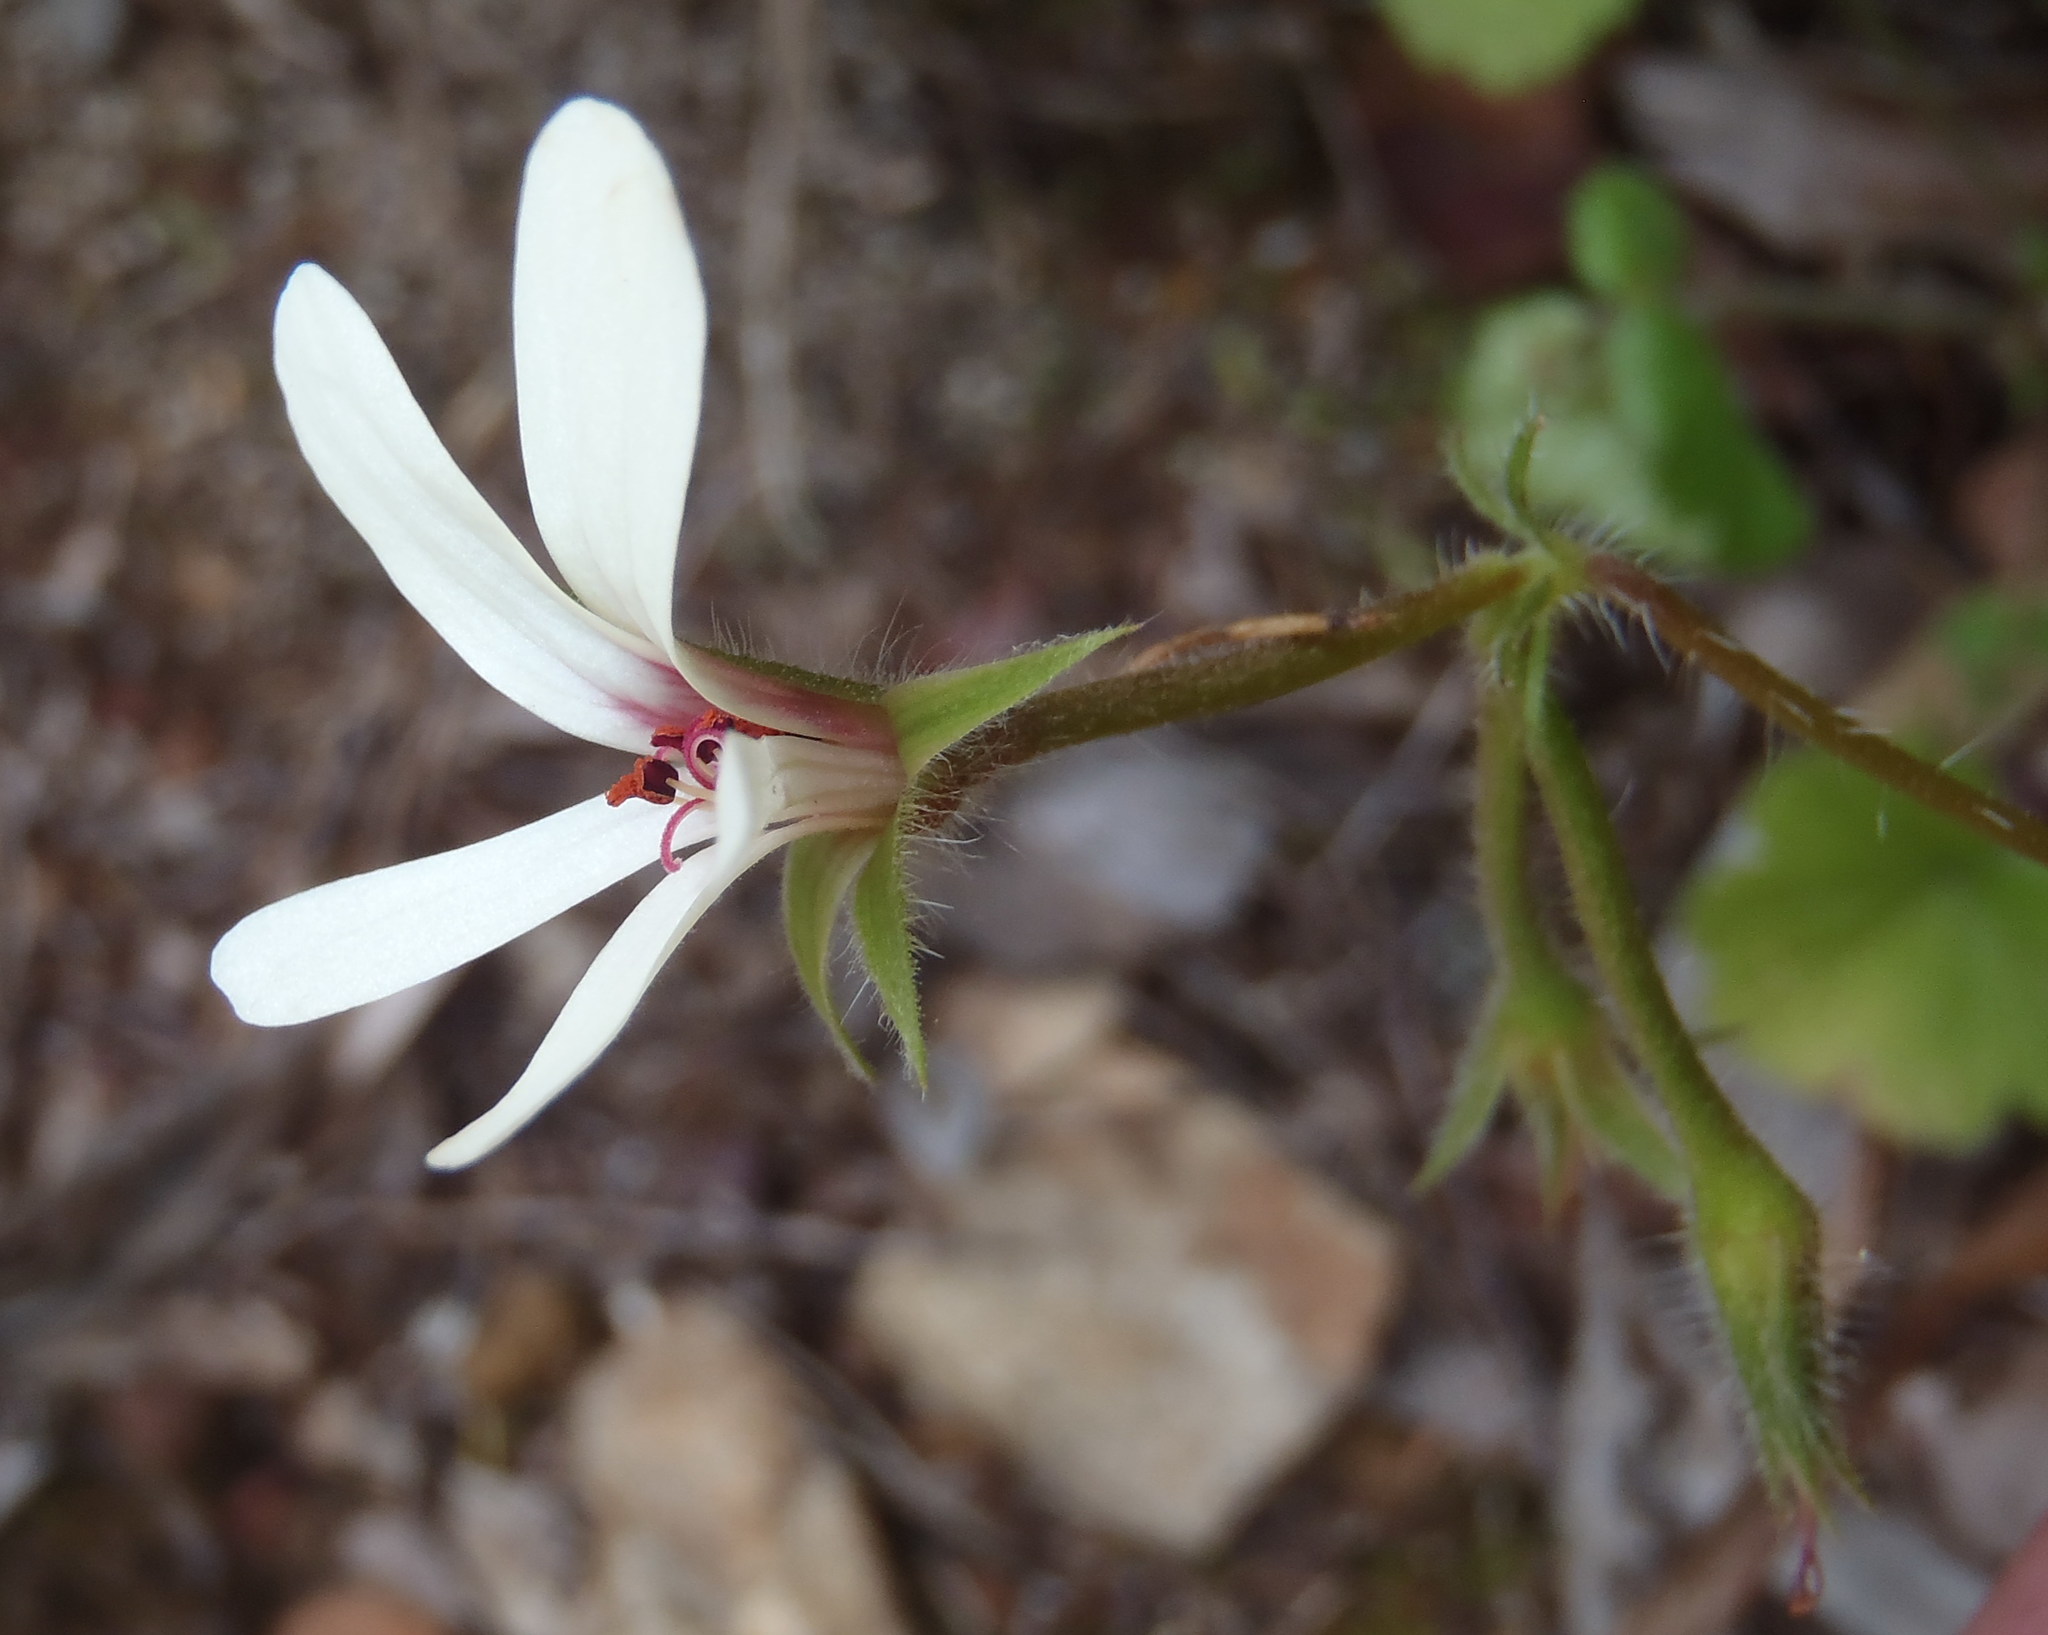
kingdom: Plantae
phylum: Tracheophyta
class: Magnoliopsida
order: Geraniales
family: Geraniaceae
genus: Pelargonium
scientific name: Pelargonium elongatum
